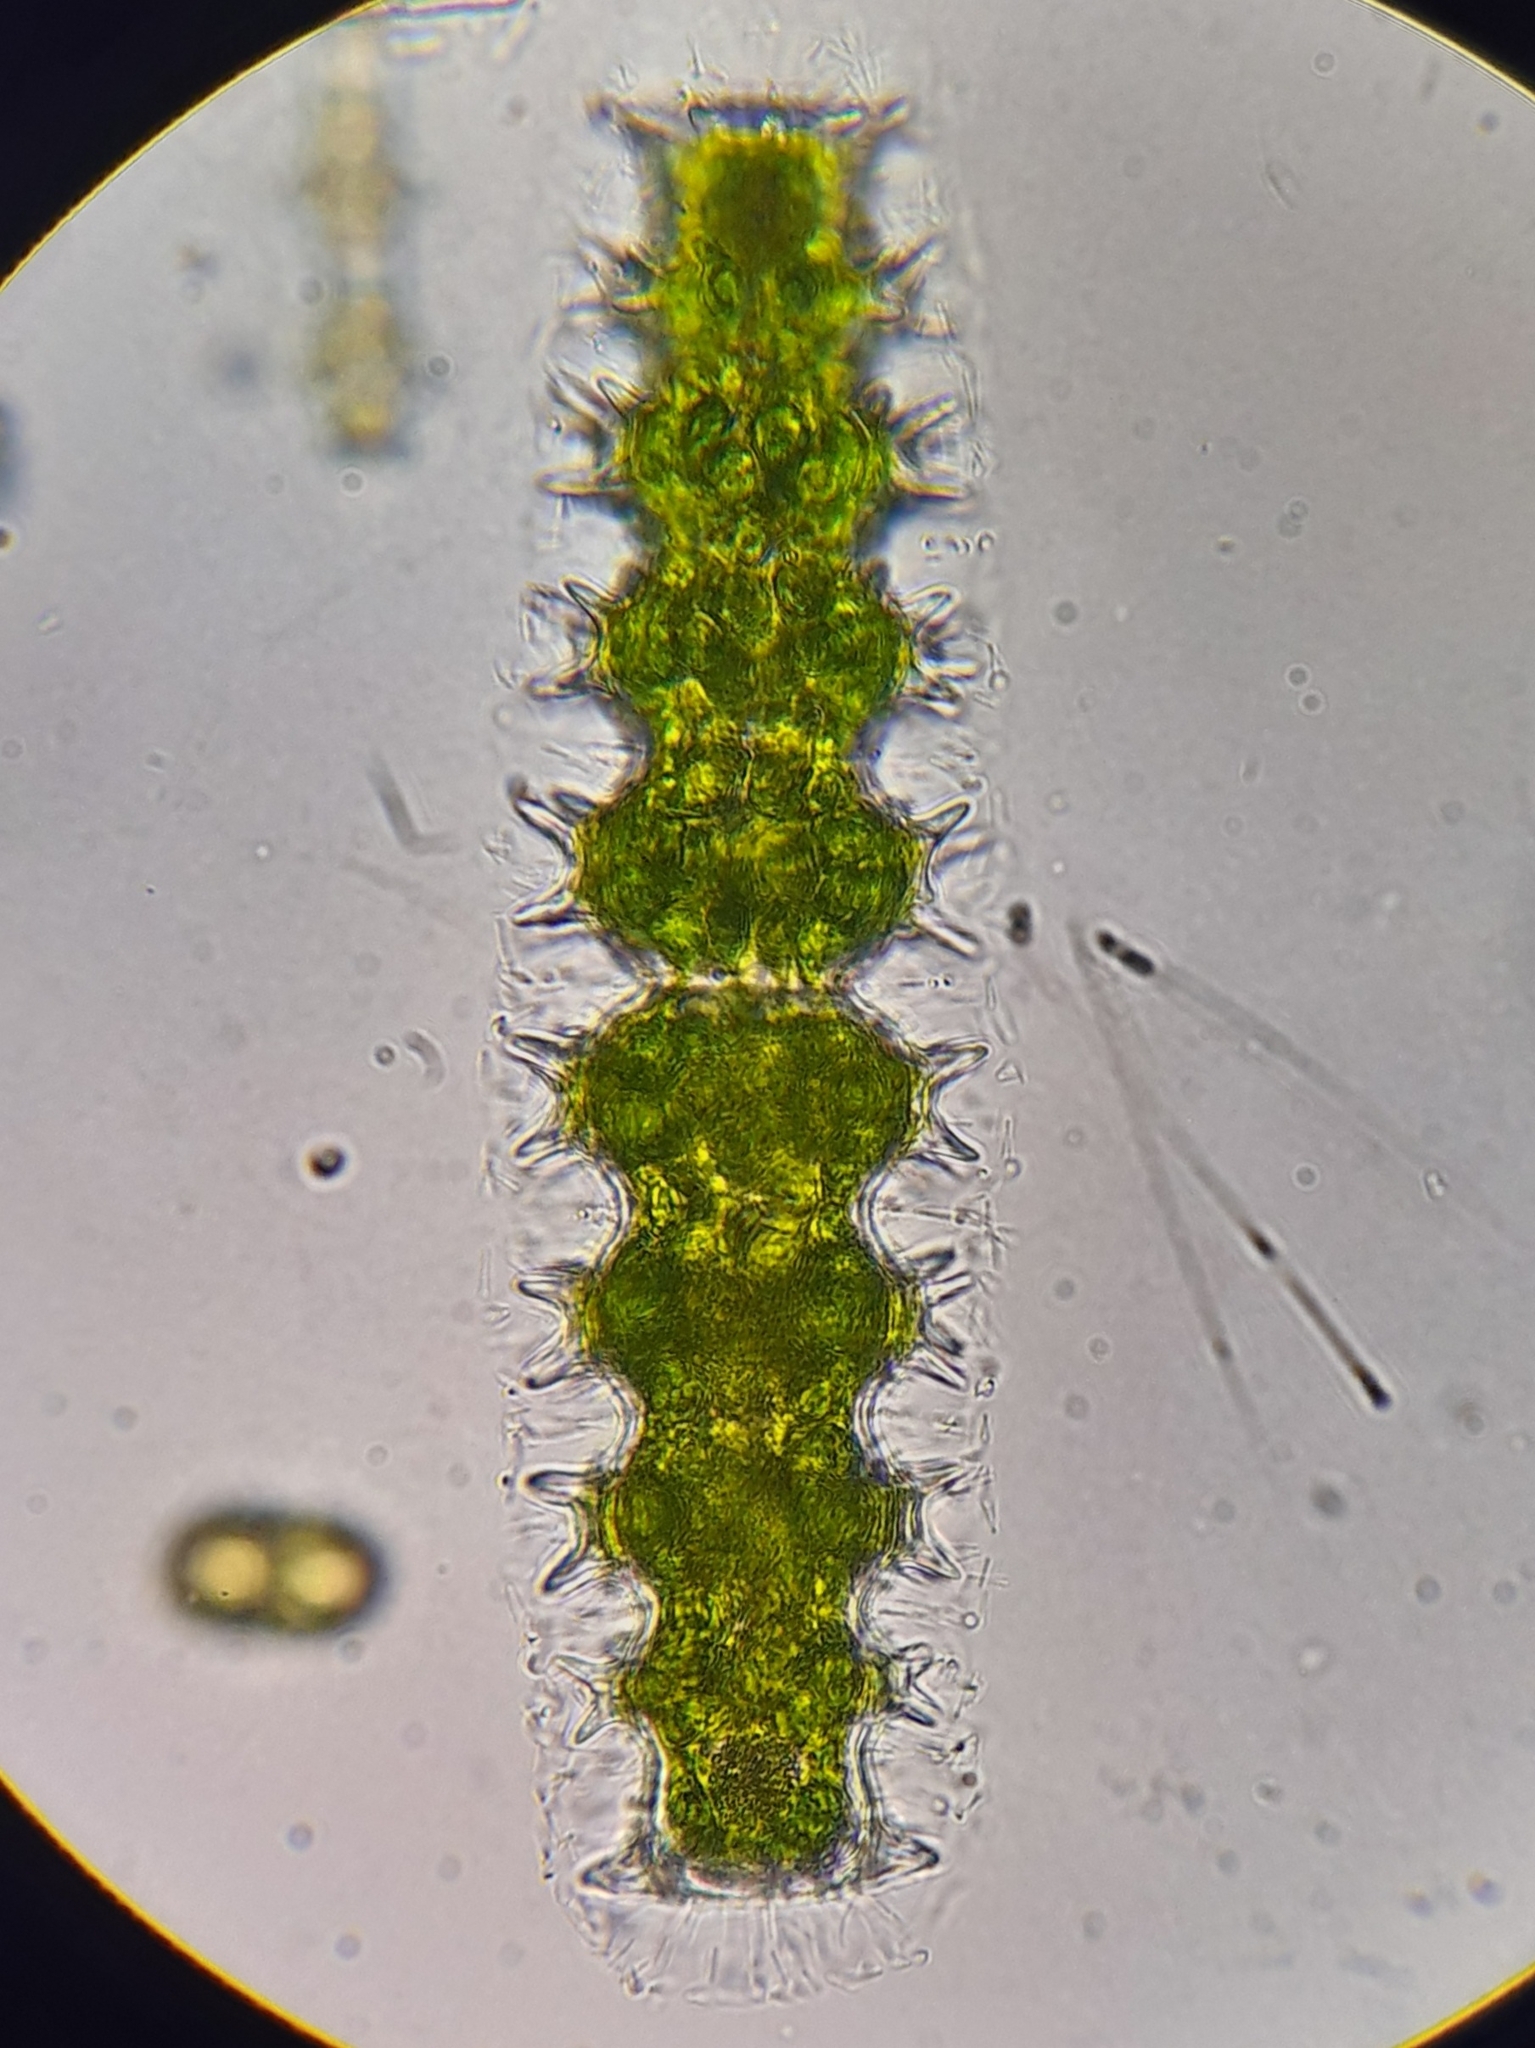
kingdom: Plantae
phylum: Charophyta
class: Zygnematophyceae
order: Zygnematales
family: Desmidiaceae
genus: Pleurotaenium
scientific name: Pleurotaenium
